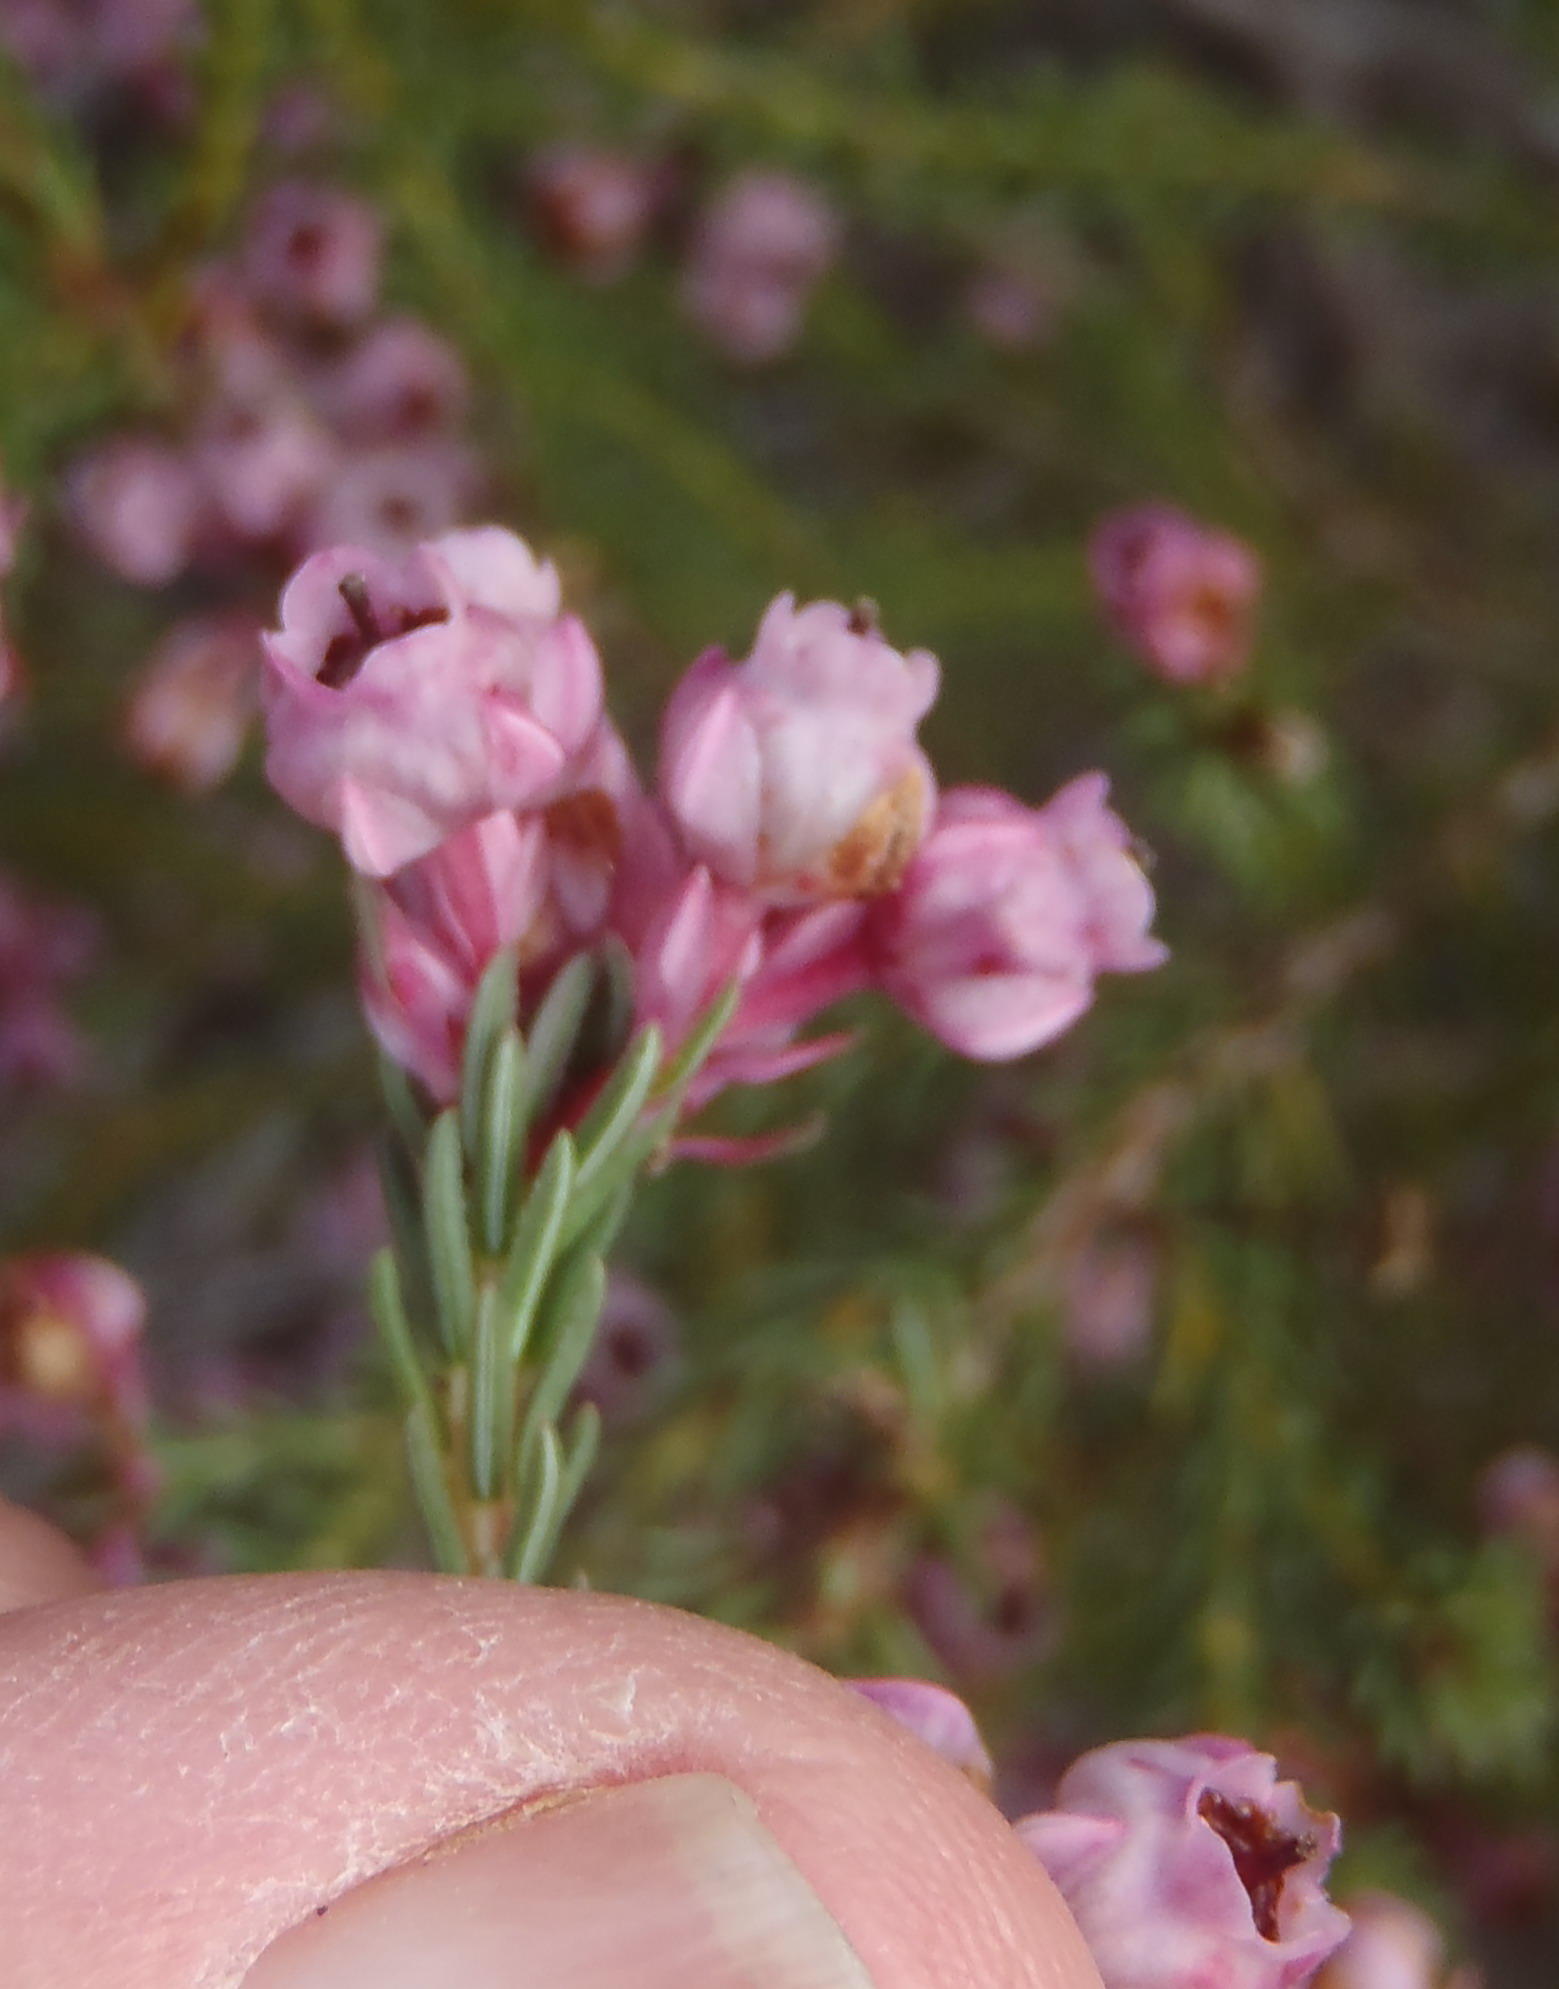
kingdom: Plantae
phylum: Tracheophyta
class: Magnoliopsida
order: Ericales
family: Ericaceae
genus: Erica
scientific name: Erica baccans
